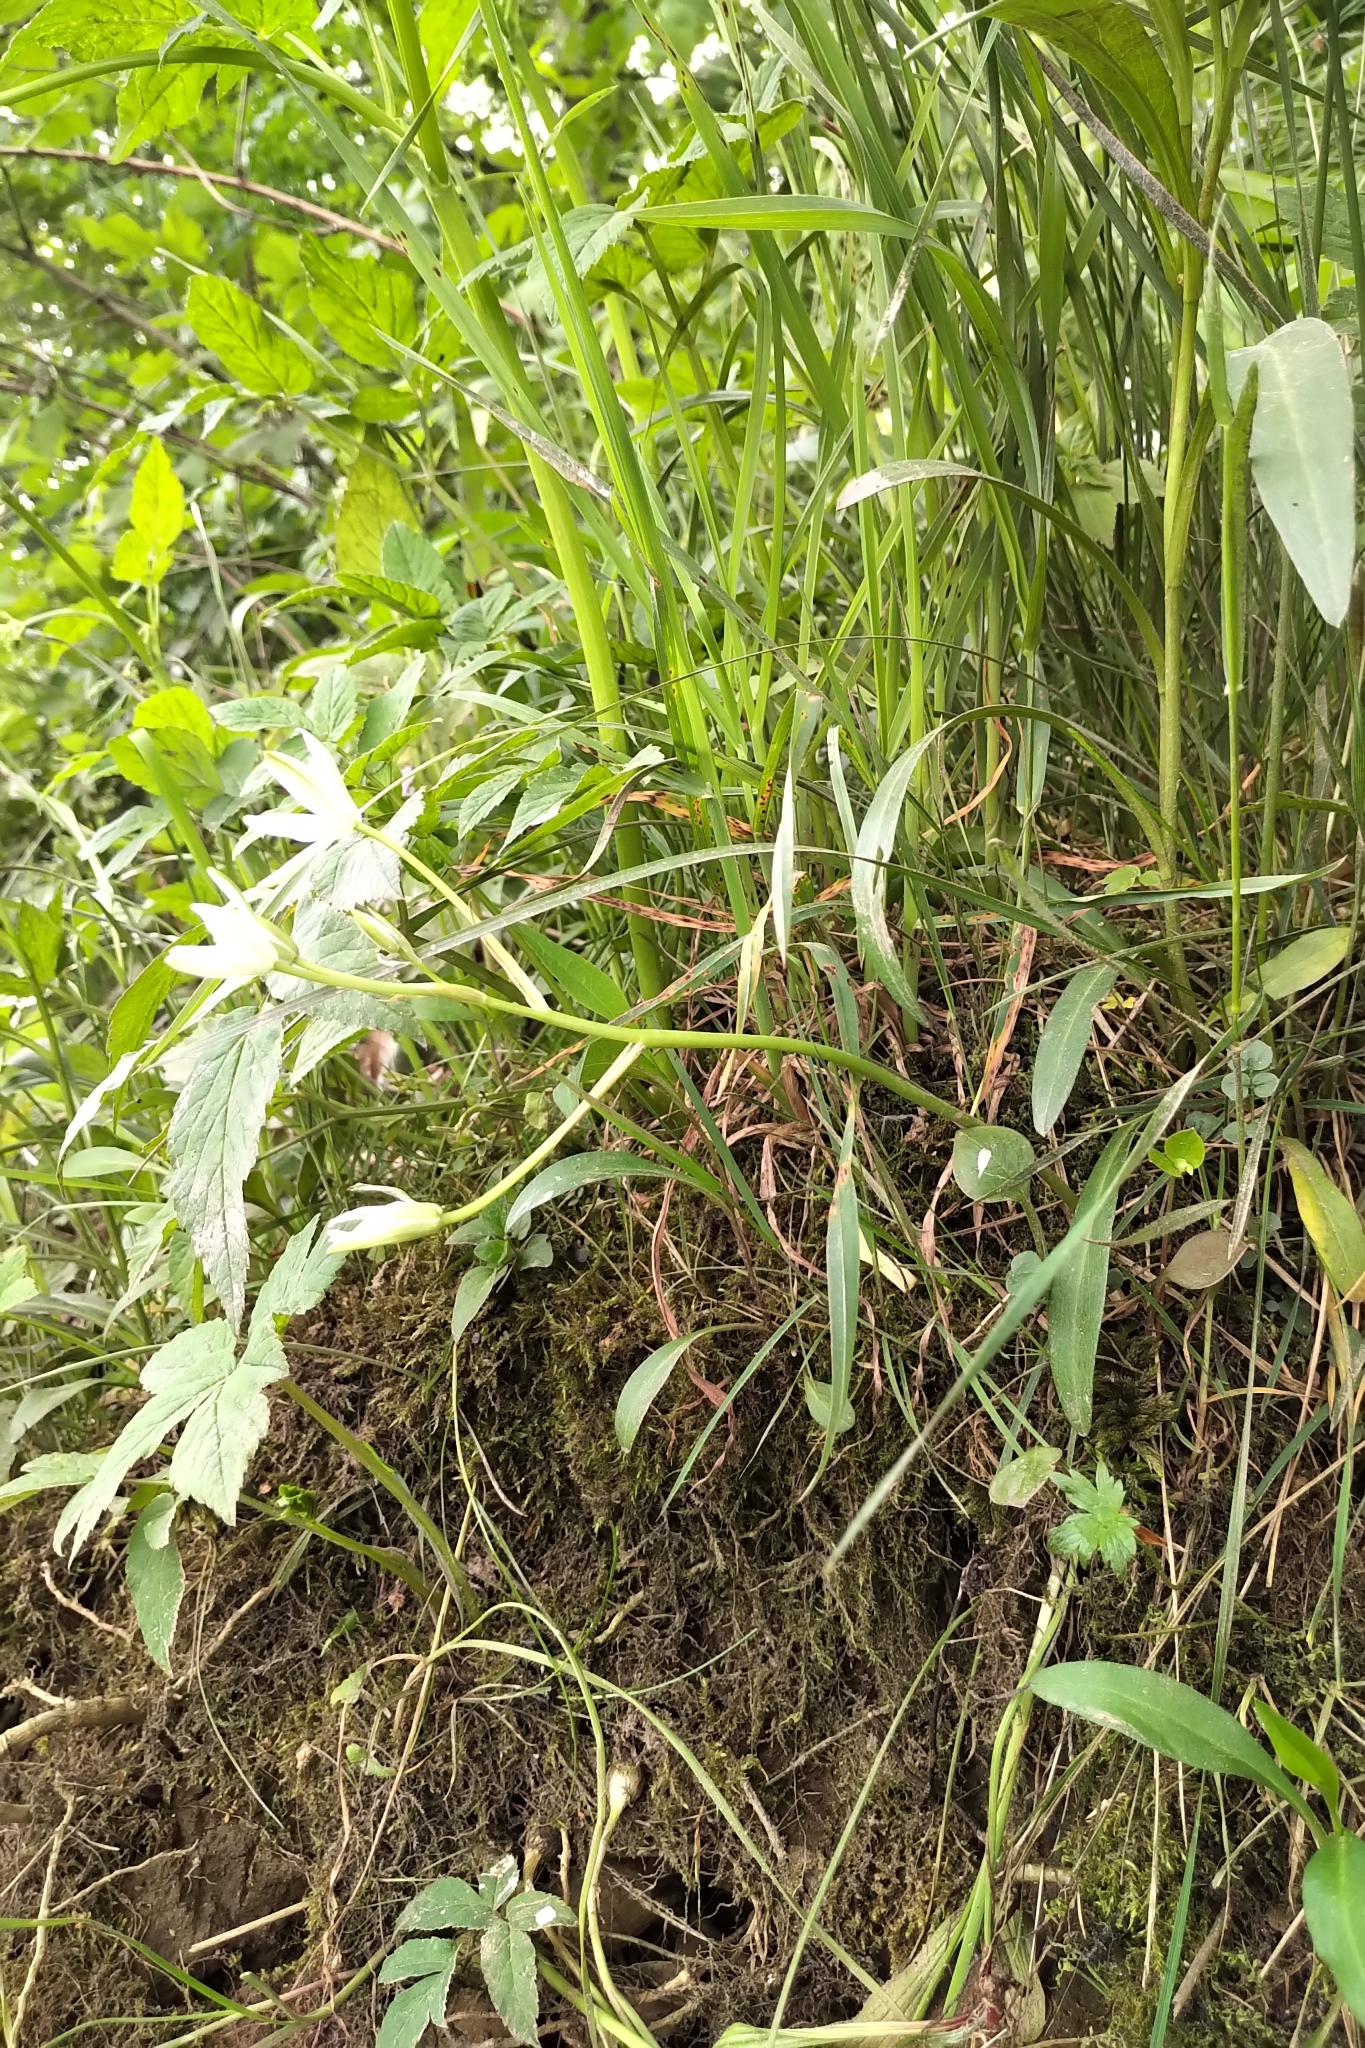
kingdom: Plantae
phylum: Tracheophyta
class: Liliopsida
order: Asparagales
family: Asparagaceae
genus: Ornithogalum
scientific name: Ornithogalum umbellatum
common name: Garden star-of-bethlehem
